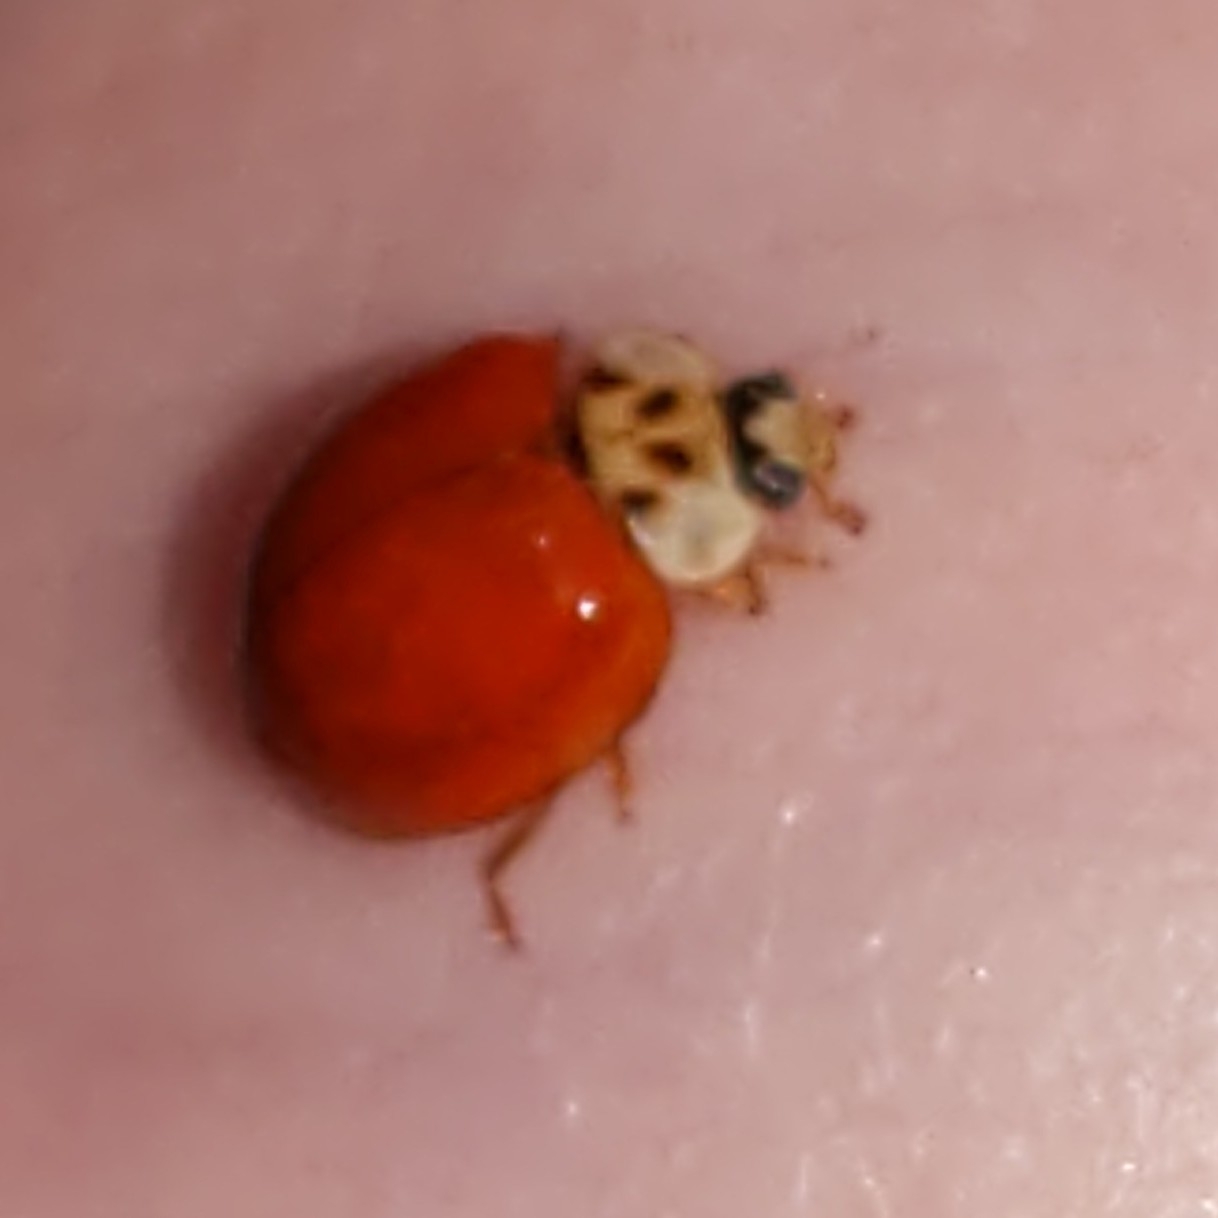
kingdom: Animalia
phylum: Arthropoda
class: Insecta
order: Coleoptera
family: Coccinellidae
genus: Harmonia
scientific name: Harmonia axyridis
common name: Harlequin ladybird
